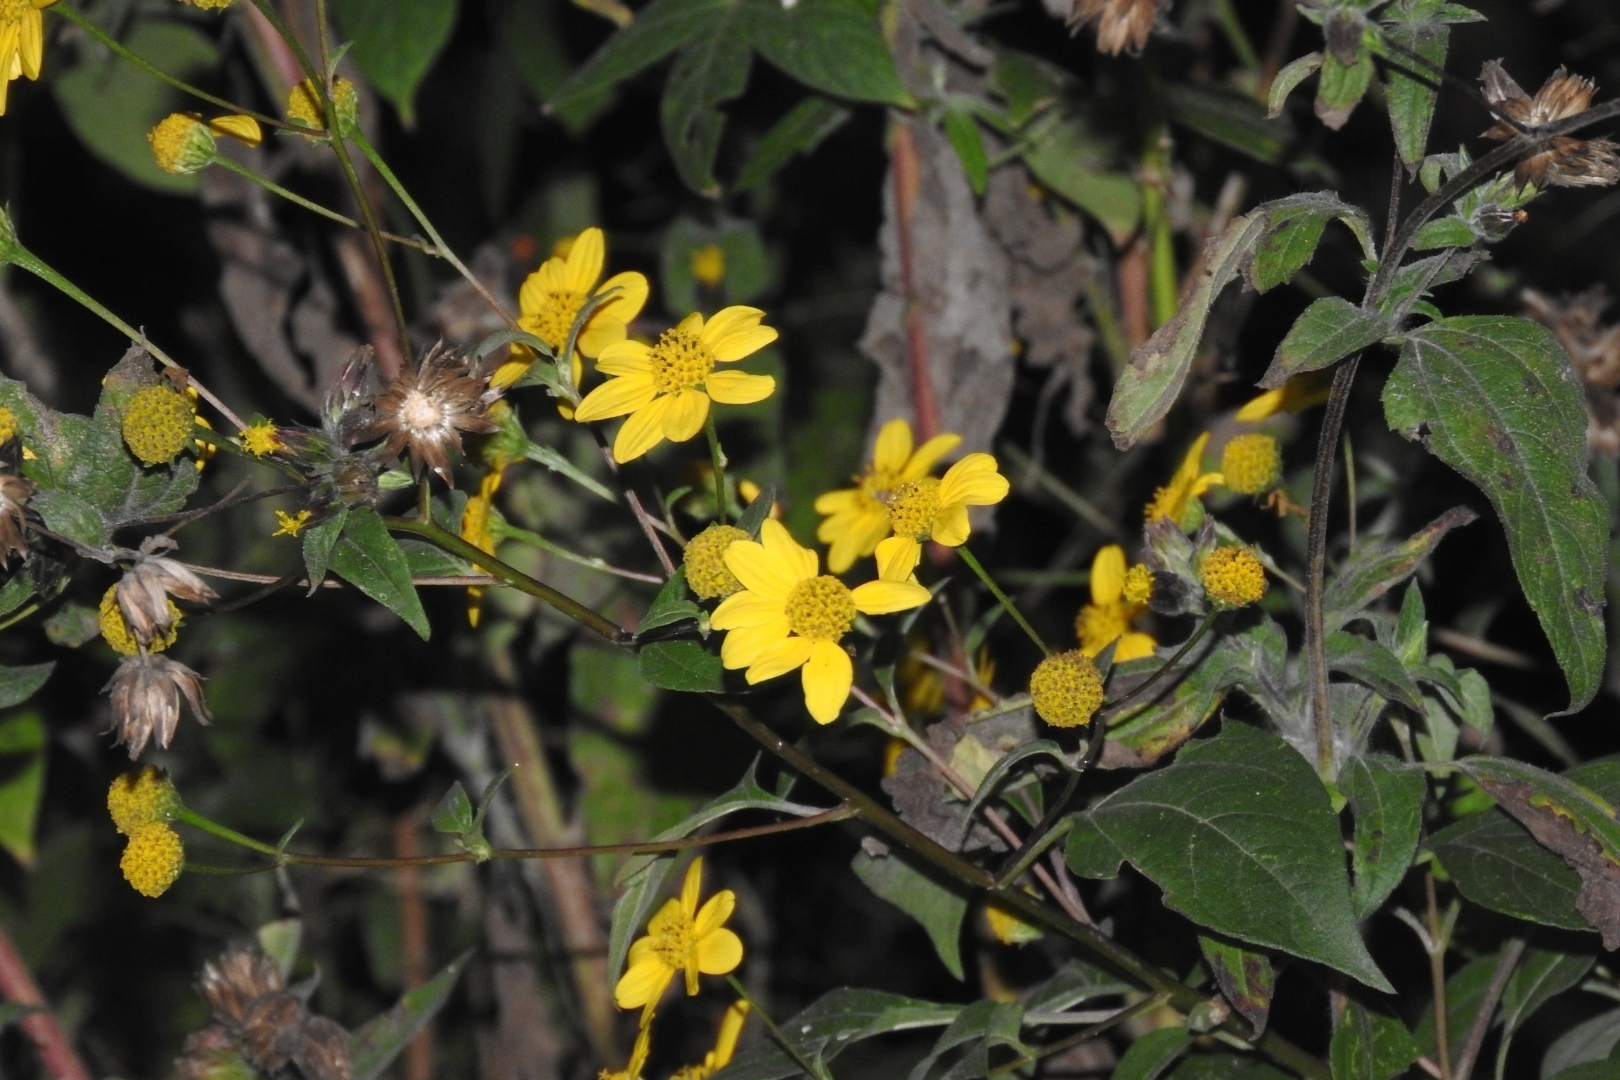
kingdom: Plantae
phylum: Tracheophyta
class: Magnoliopsida
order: Asterales
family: Asteraceae
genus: Viguiera
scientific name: Viguiera dentata
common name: Toothleaf
